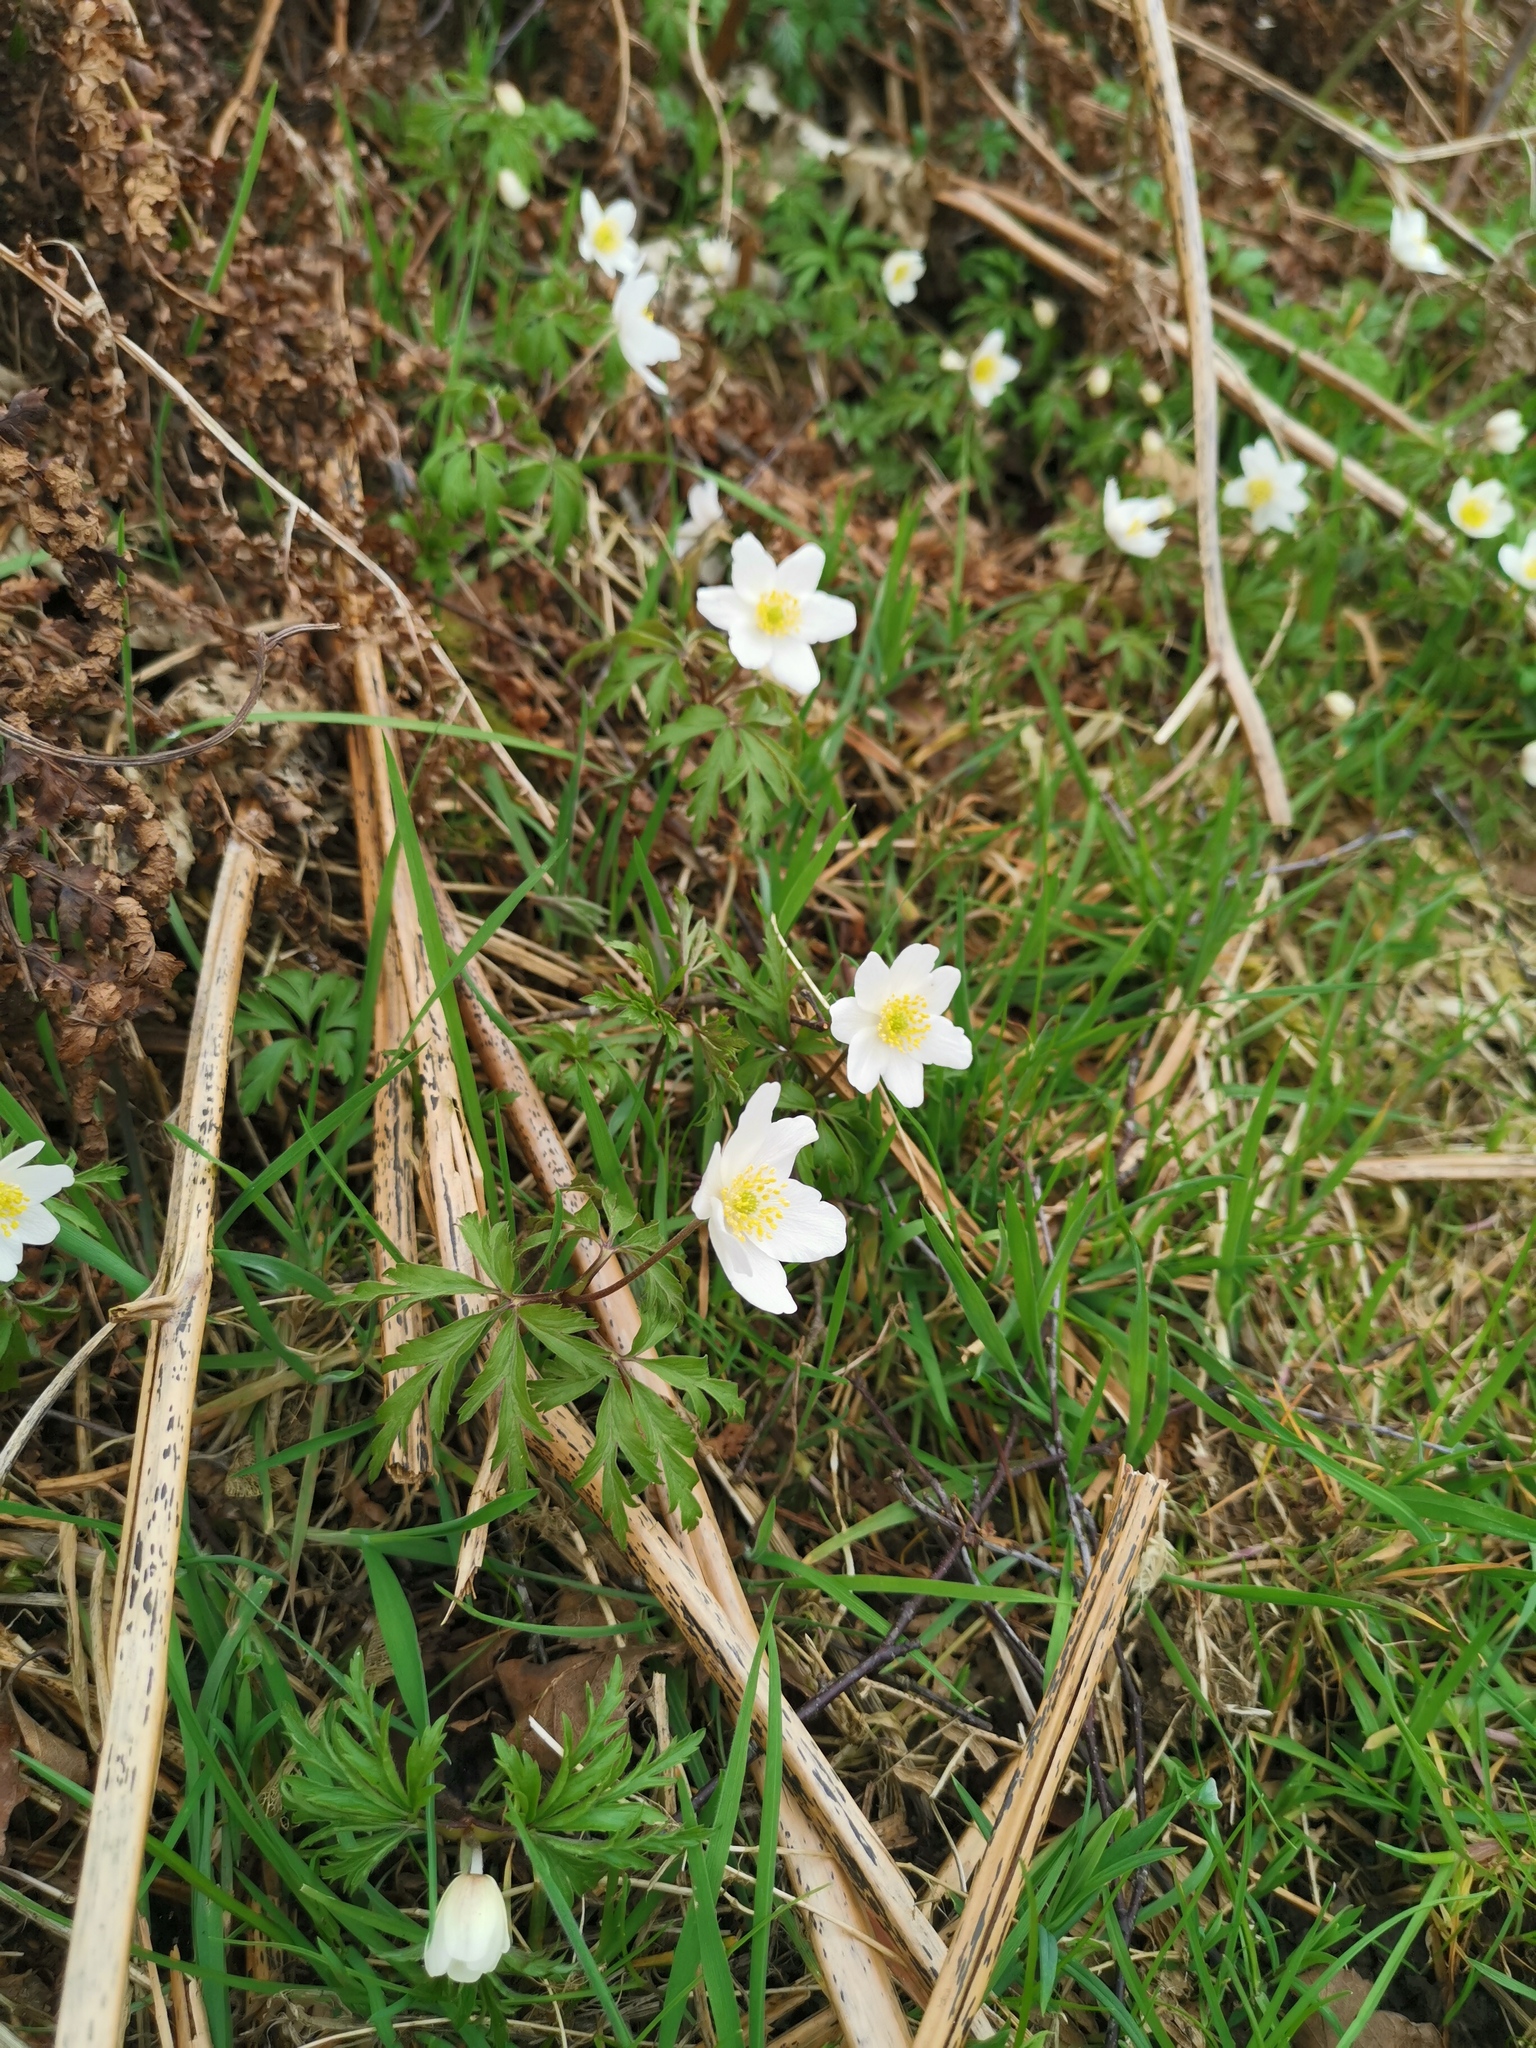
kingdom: Plantae
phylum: Tracheophyta
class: Magnoliopsida
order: Ranunculales
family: Ranunculaceae
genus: Anemone
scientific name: Anemone nemorosa
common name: Wood anemone
